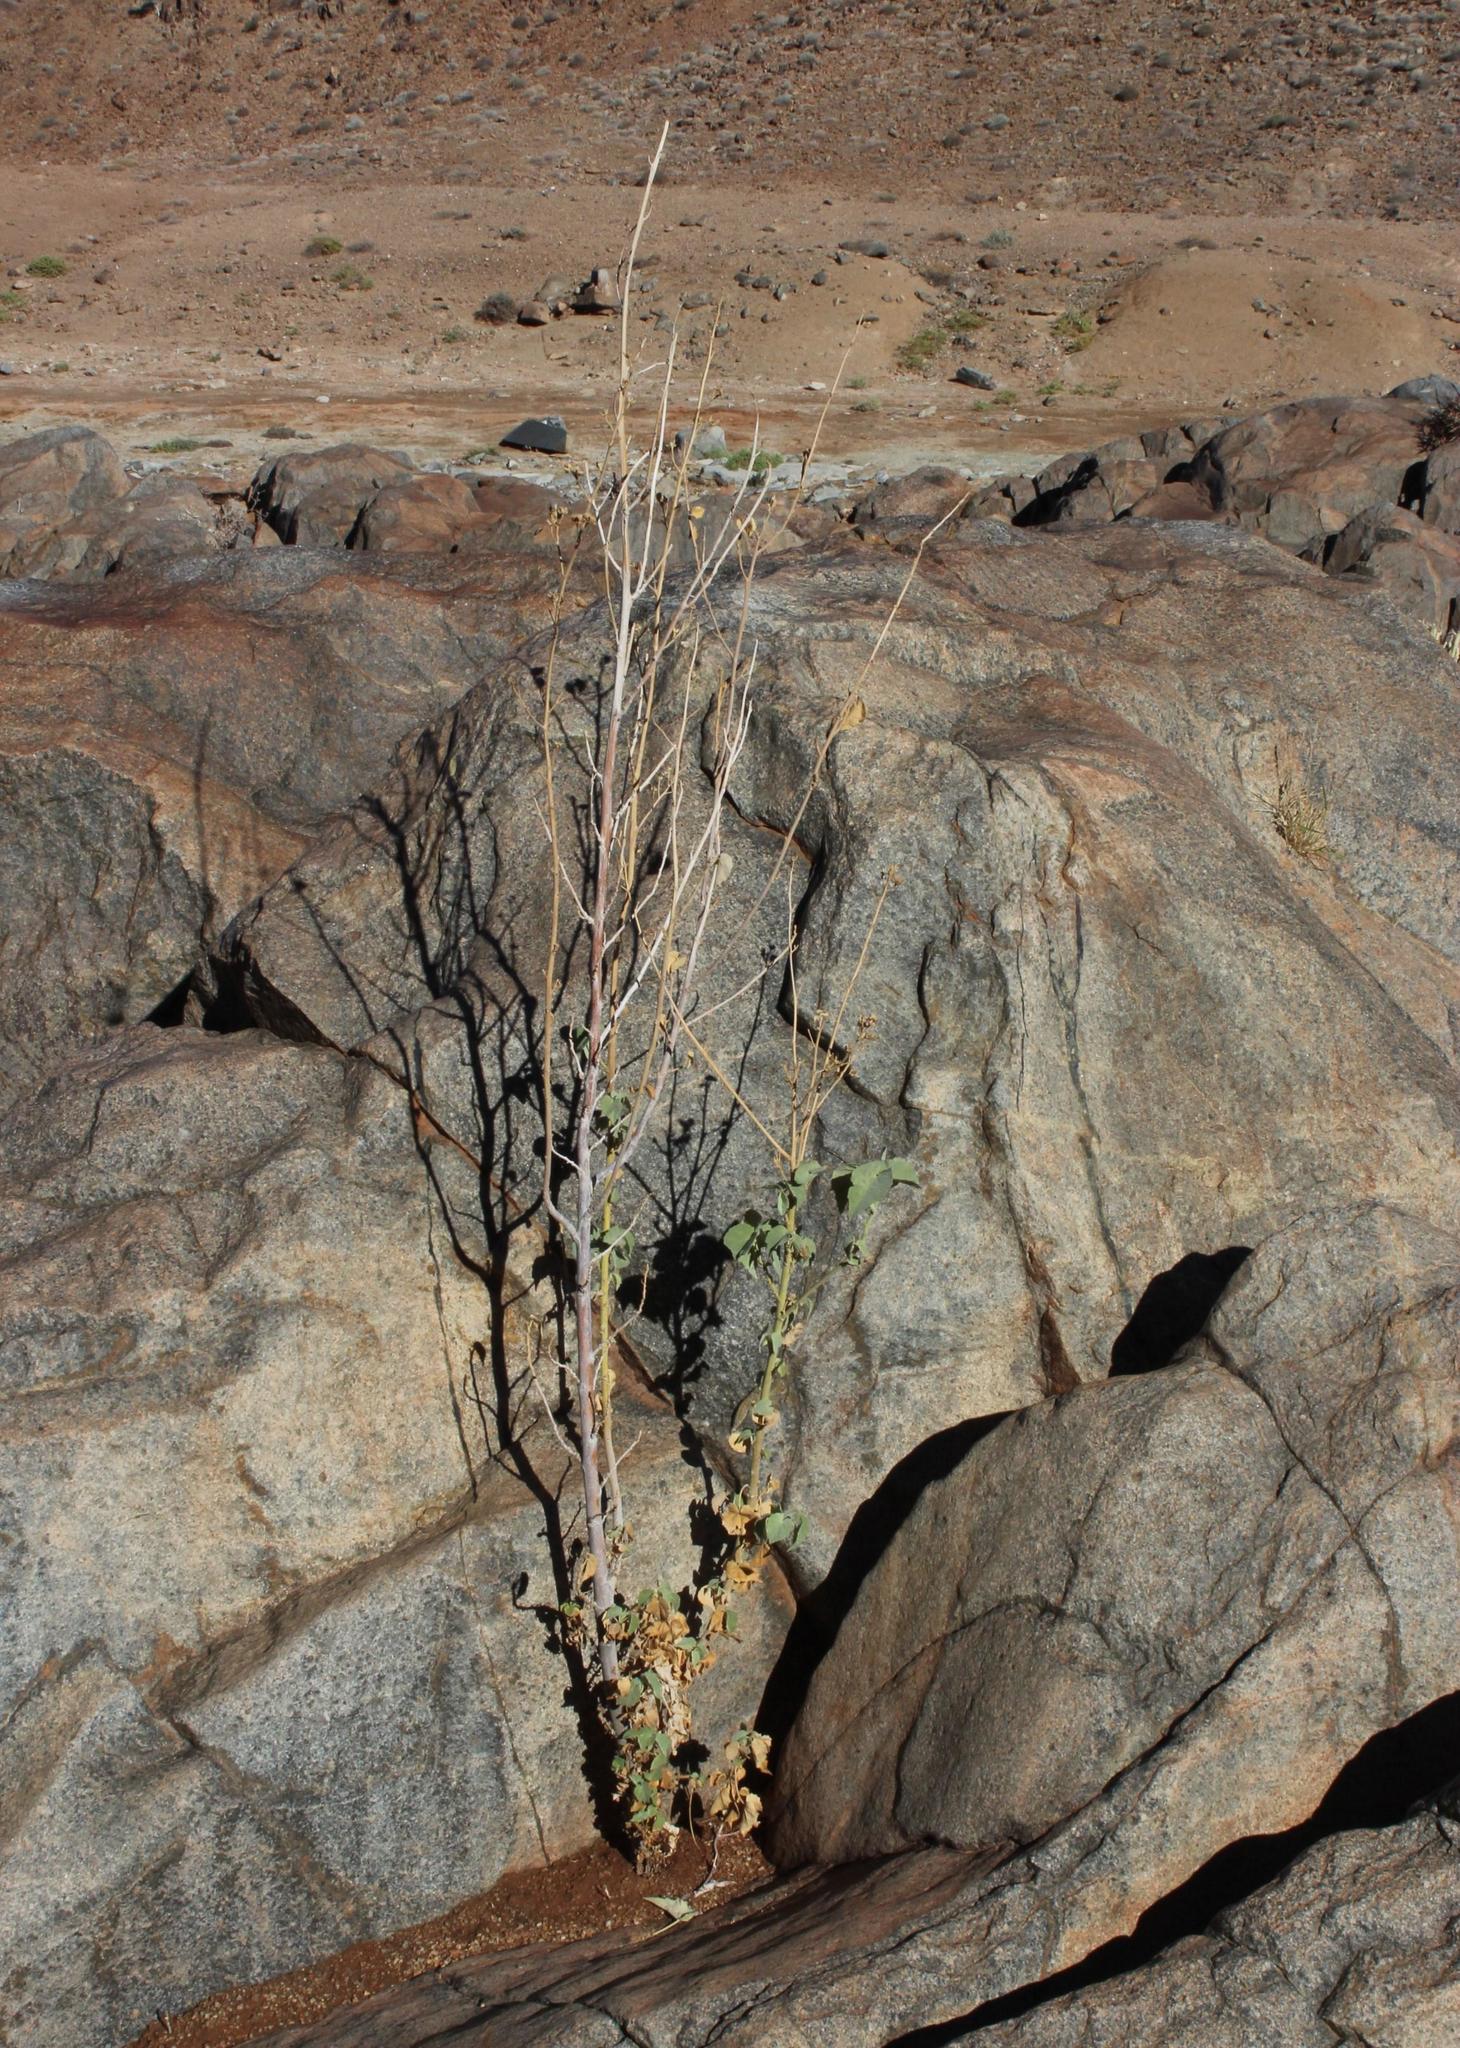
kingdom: Plantae
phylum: Tracheophyta
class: Magnoliopsida
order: Malvales
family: Malvaceae
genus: Abutilon
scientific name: Abutilon pycnodon
